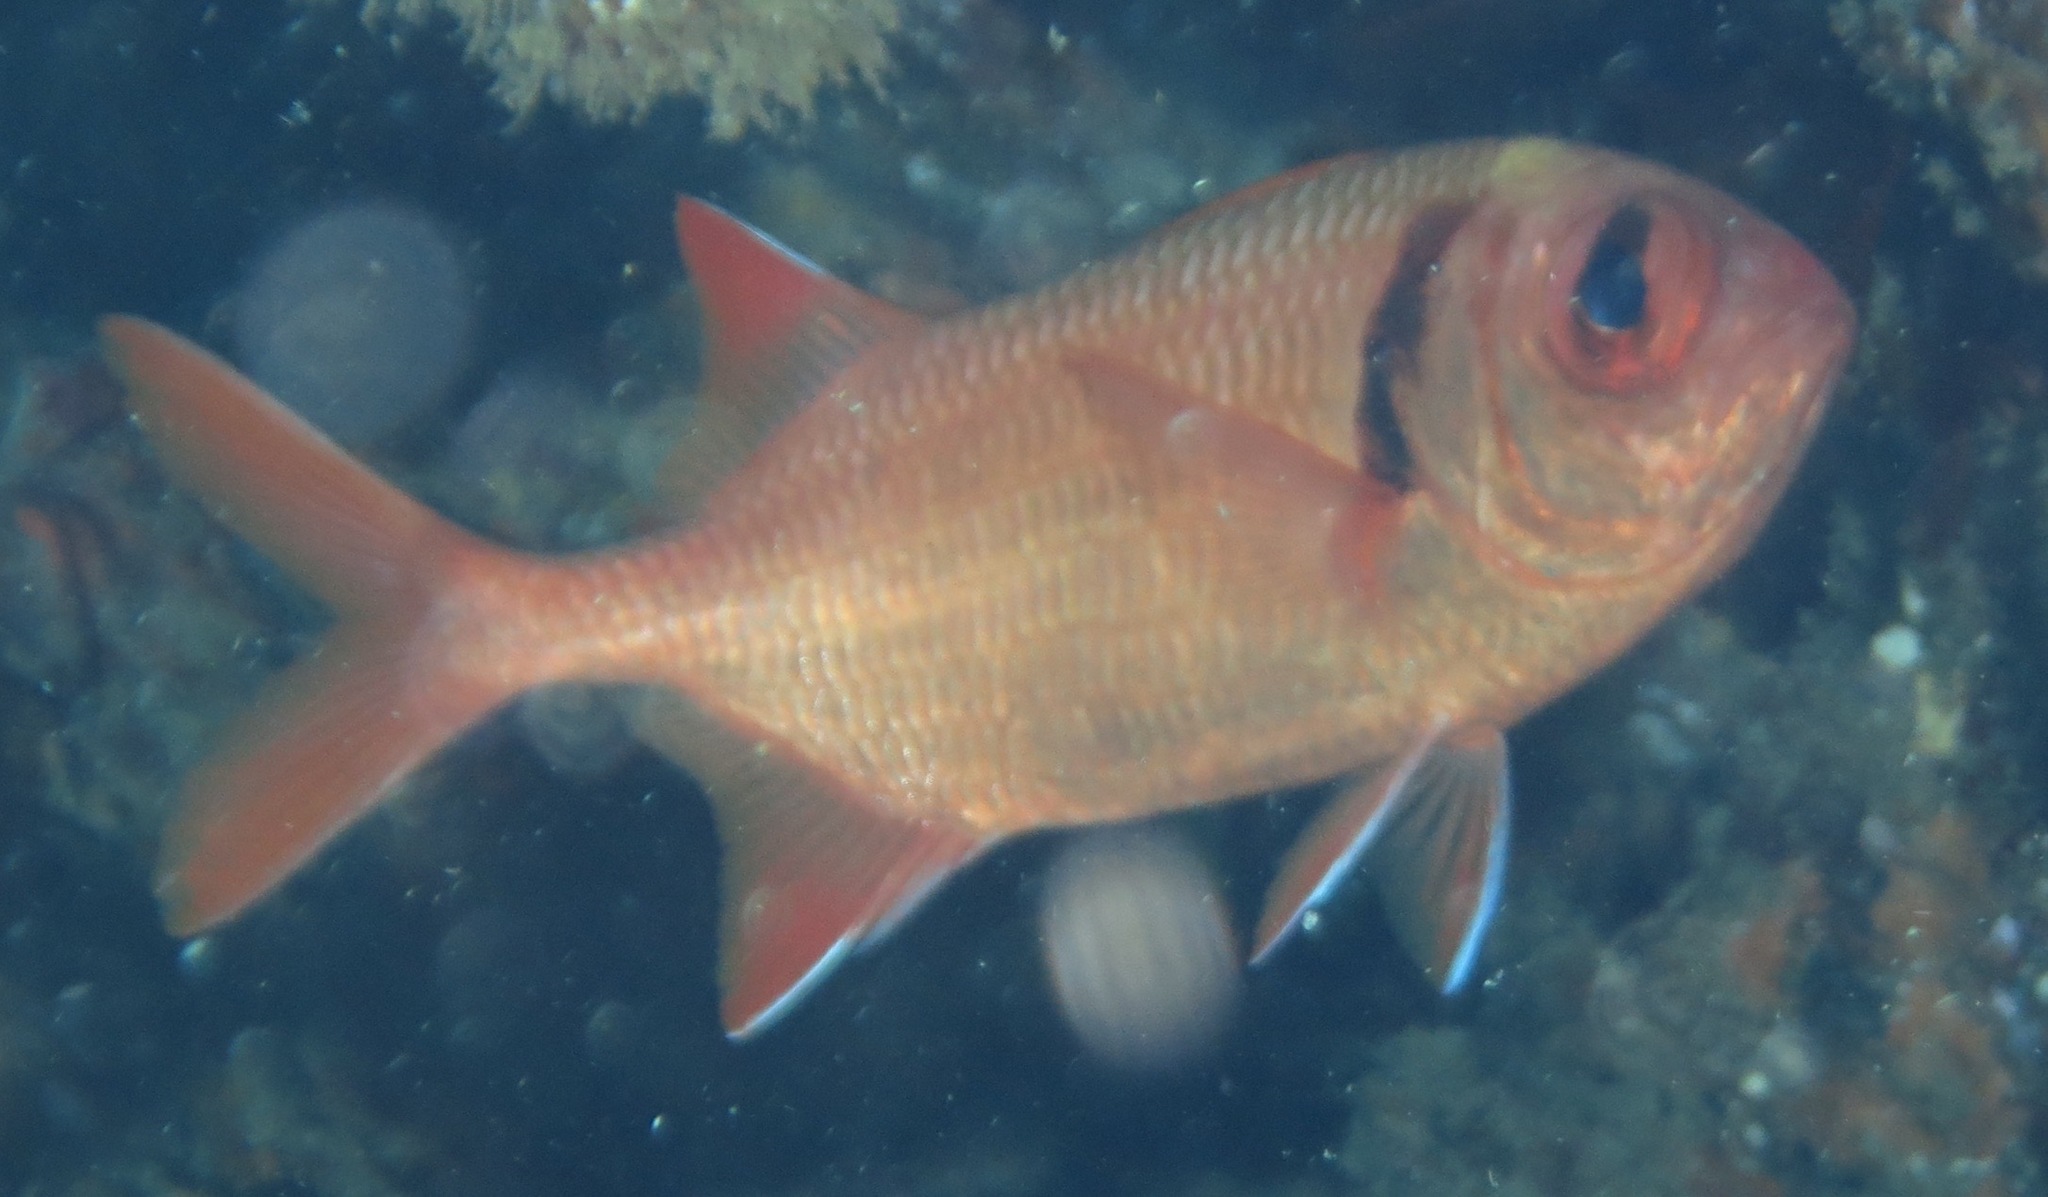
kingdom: Animalia
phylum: Chordata
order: Beryciformes
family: Holocentridae
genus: Myripristis
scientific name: Myripristis kuntee
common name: Epaulette soldierfish
